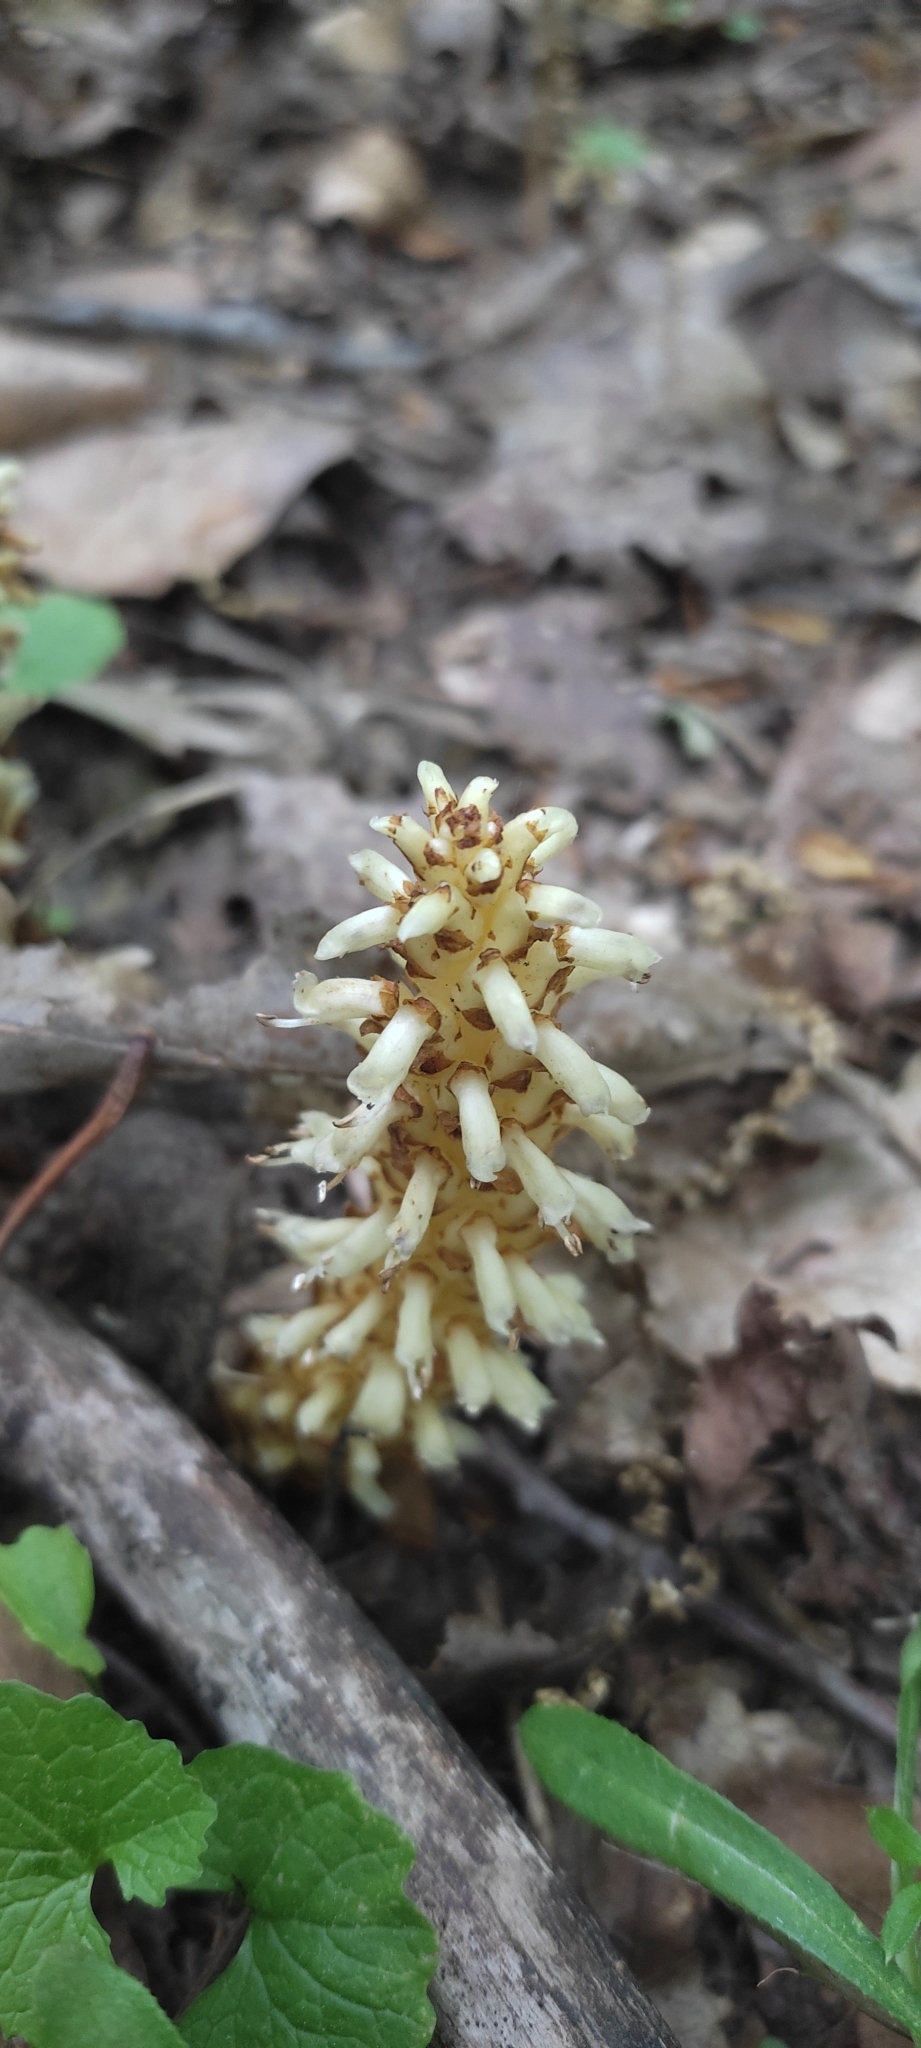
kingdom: Plantae
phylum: Tracheophyta
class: Magnoliopsida
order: Lamiales
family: Orobanchaceae
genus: Conopholis
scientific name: Conopholis americana
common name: American cancer-root
